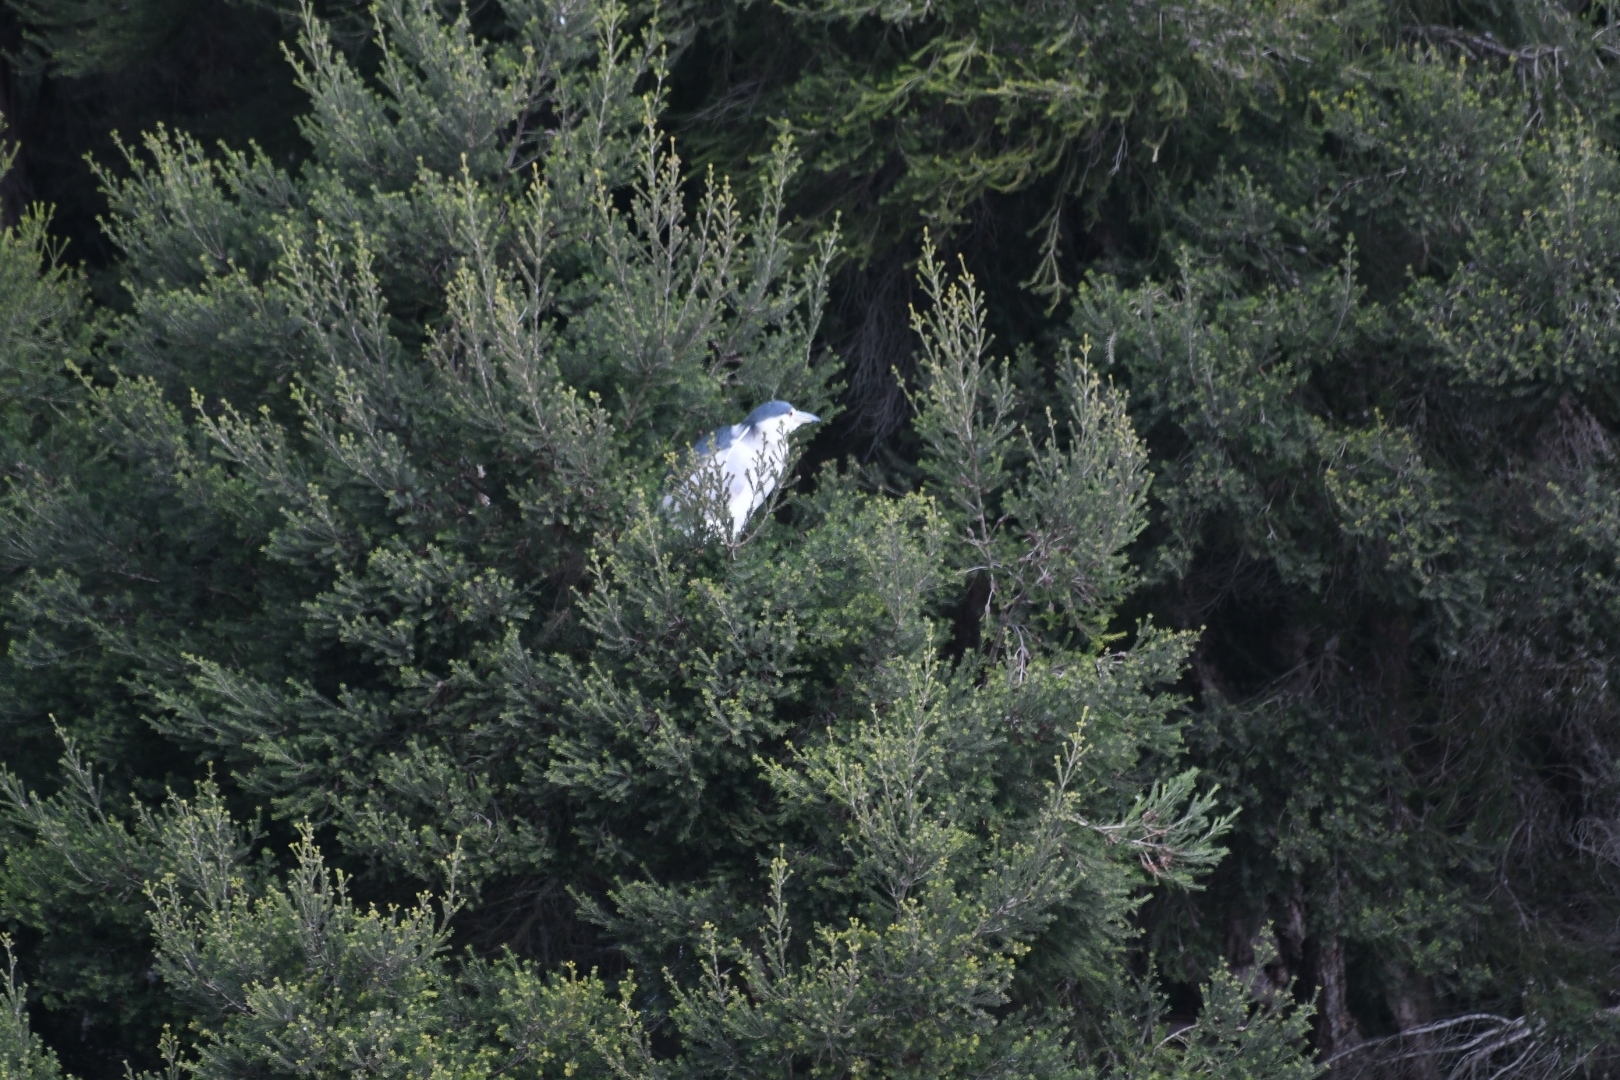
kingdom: Animalia
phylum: Chordata
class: Aves
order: Pelecaniformes
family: Ardeidae
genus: Nycticorax
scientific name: Nycticorax nycticorax
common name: Black-crowned night heron
